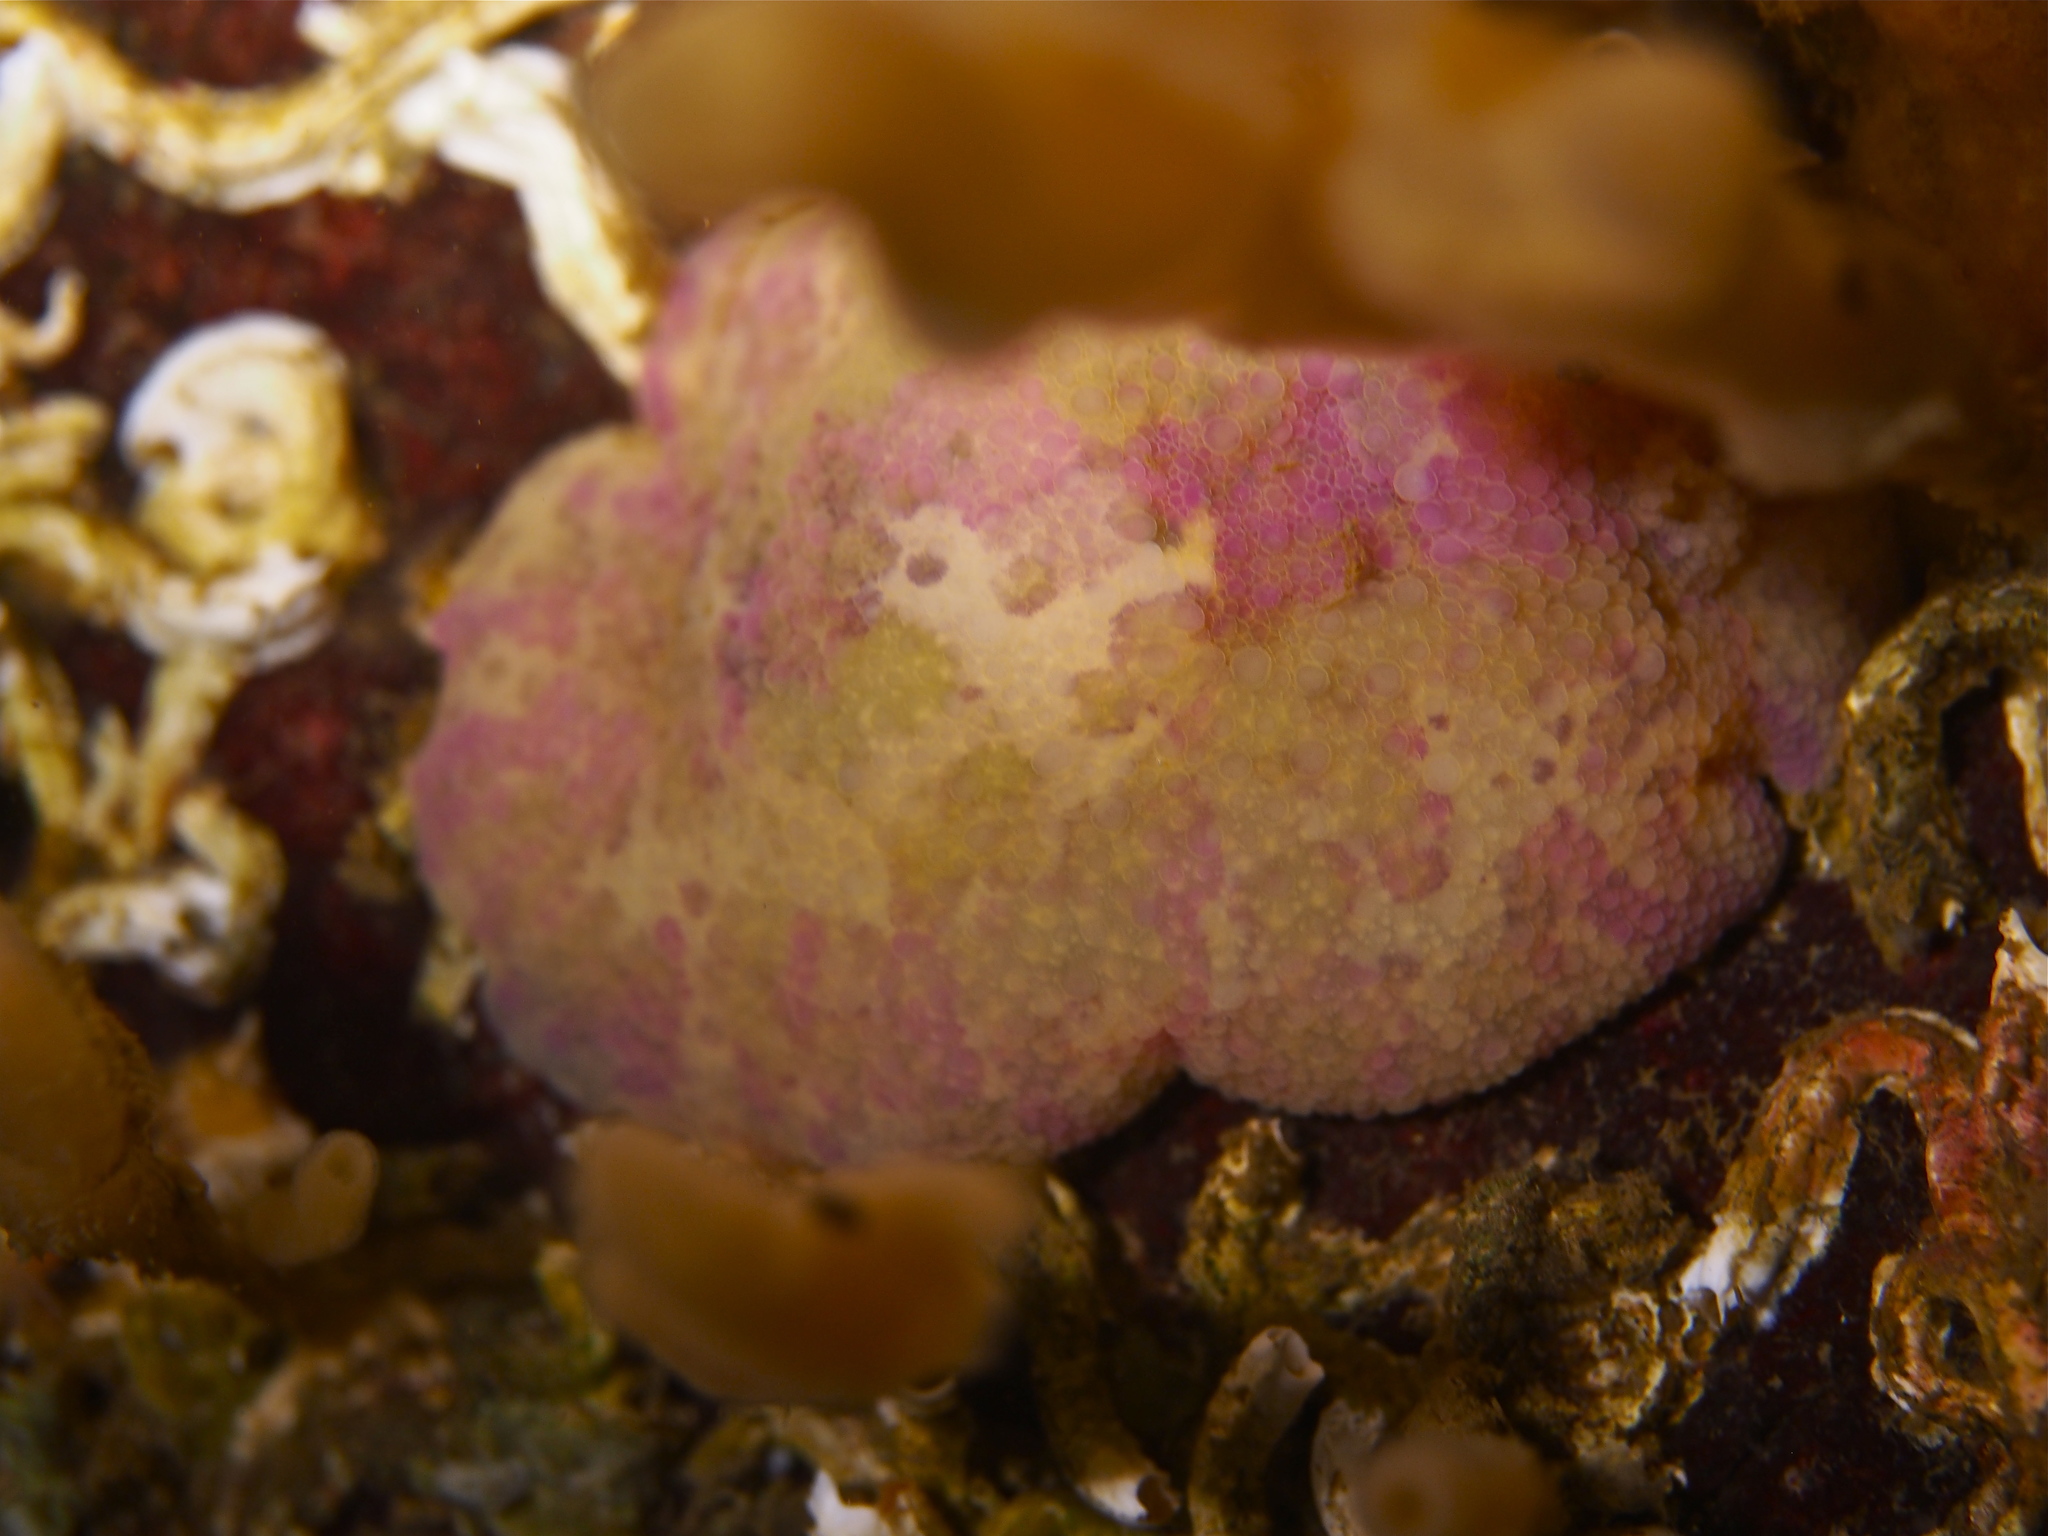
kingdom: Animalia
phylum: Mollusca
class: Gastropoda
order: Nudibranchia
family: Dorididae
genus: Doris
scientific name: Doris pseudoargus
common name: Sea lemon
